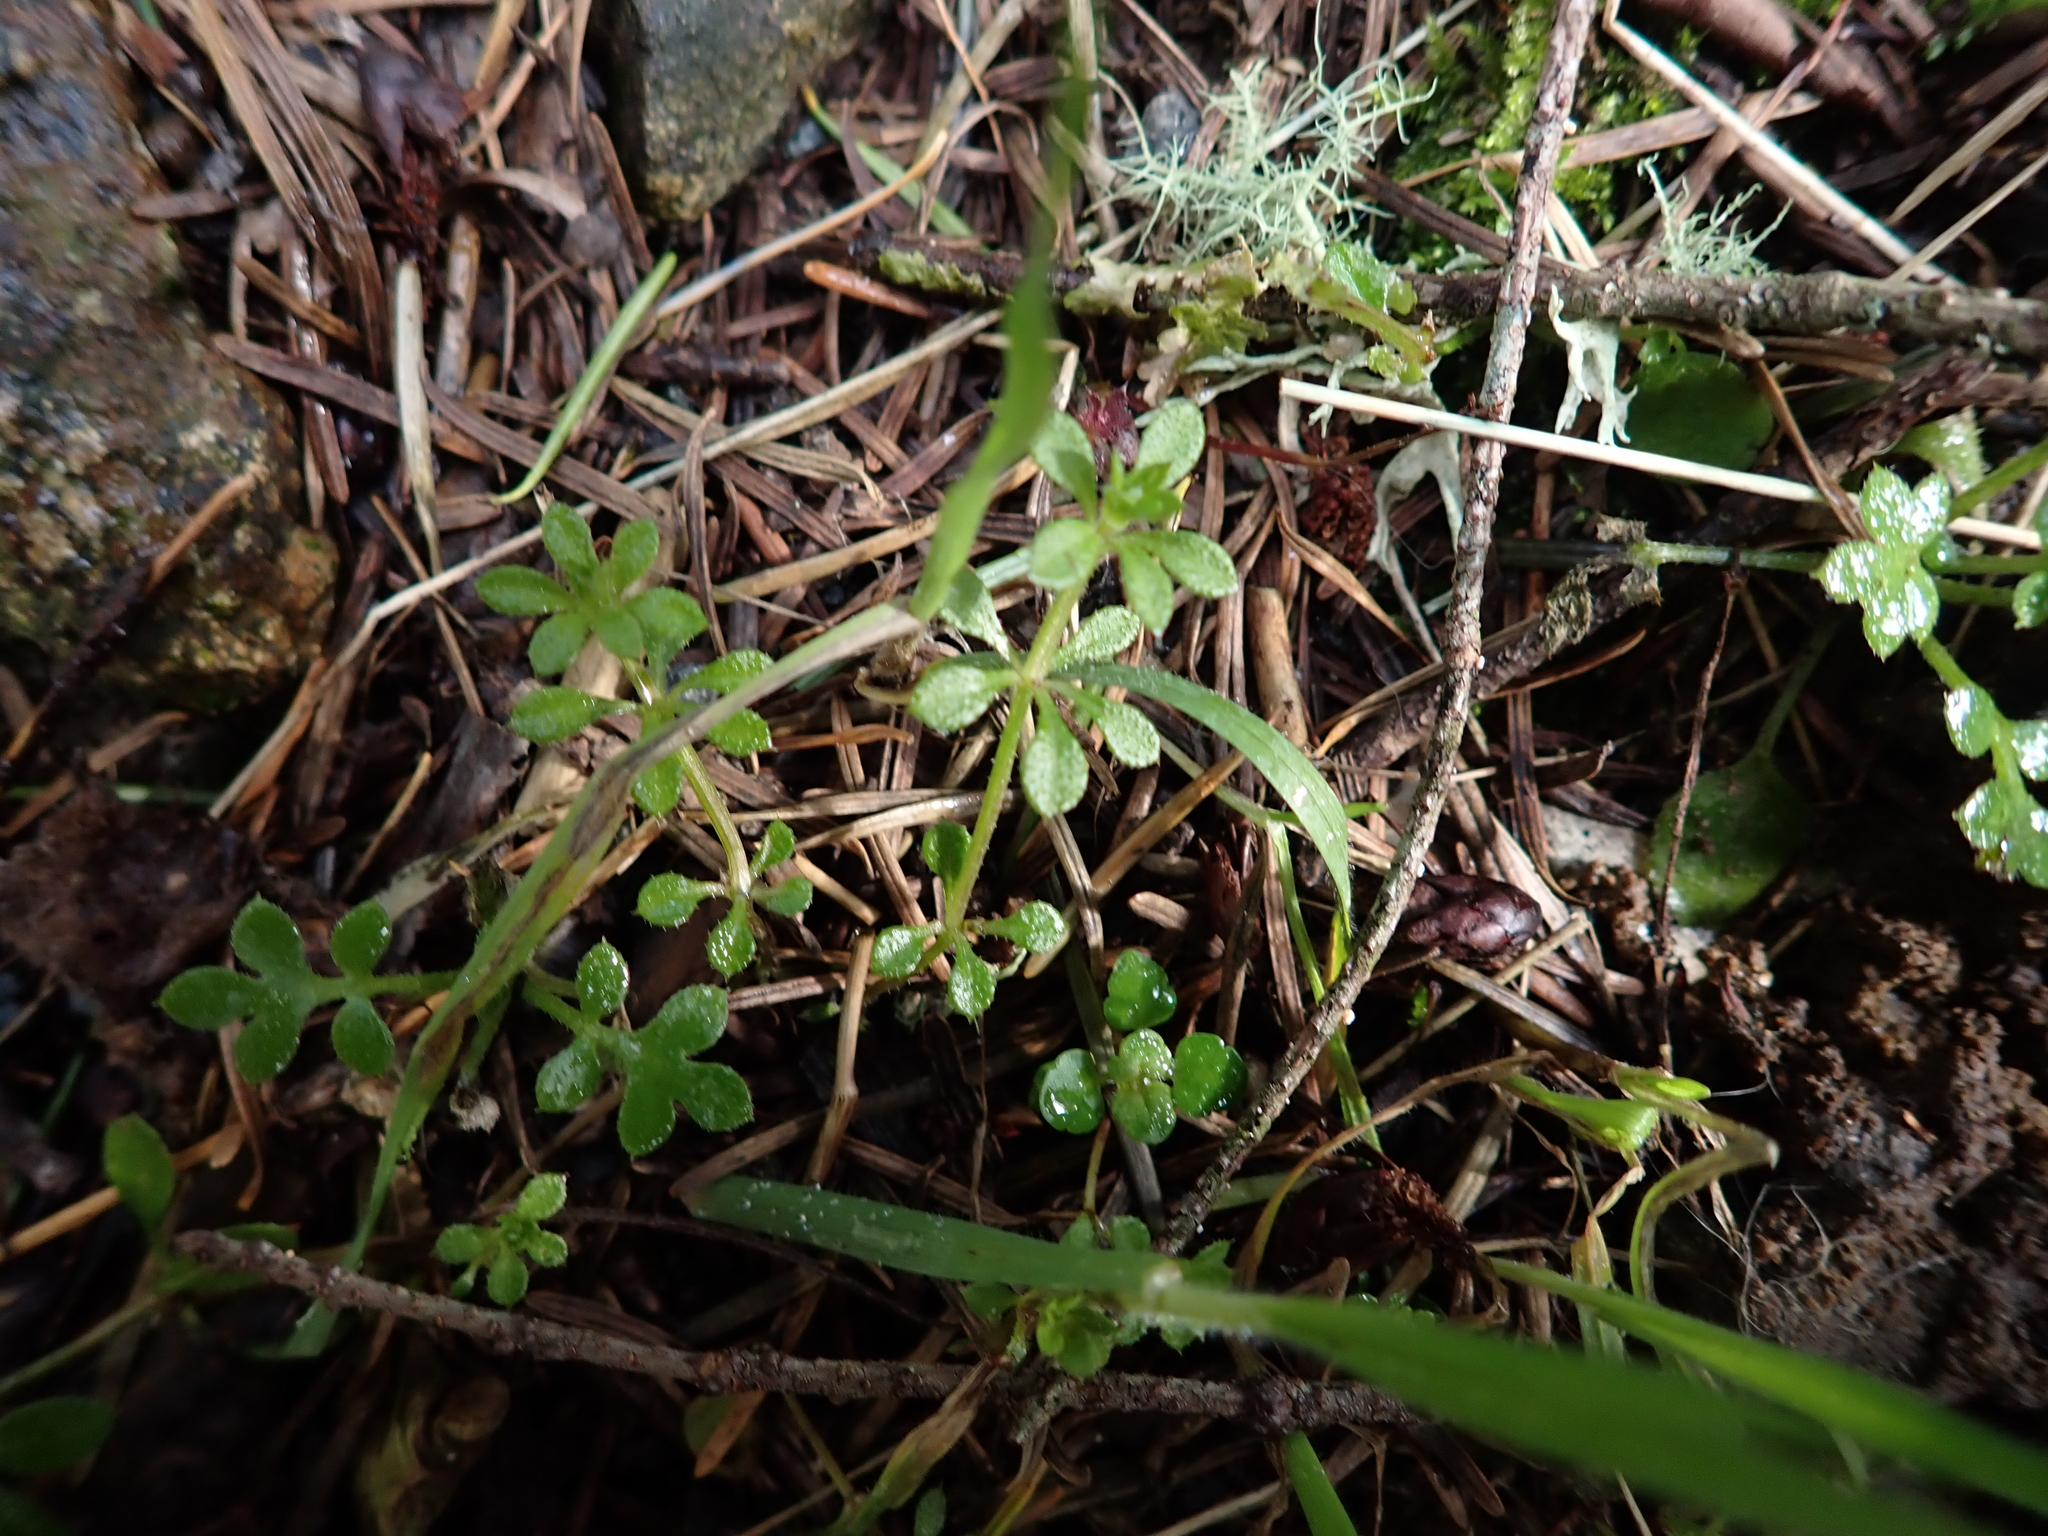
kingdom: Plantae
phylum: Tracheophyta
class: Magnoliopsida
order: Gentianales
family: Rubiaceae
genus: Galium
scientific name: Galium aparine
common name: Cleavers
